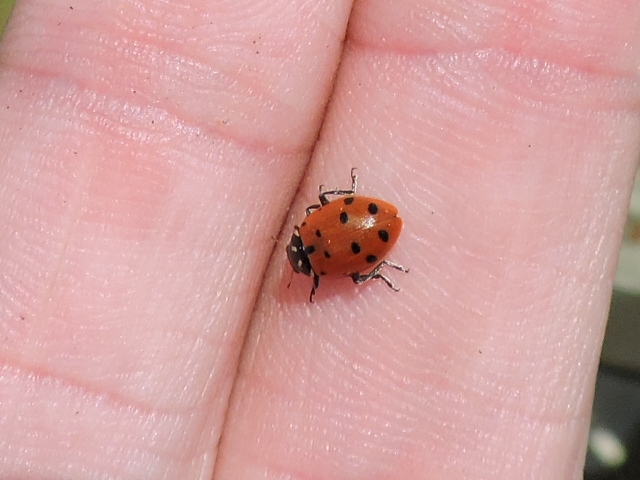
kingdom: Animalia
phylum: Arthropoda
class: Insecta
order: Coleoptera
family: Coccinellidae
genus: Hippodamia
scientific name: Hippodamia convergens
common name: Convergent lady beetle
